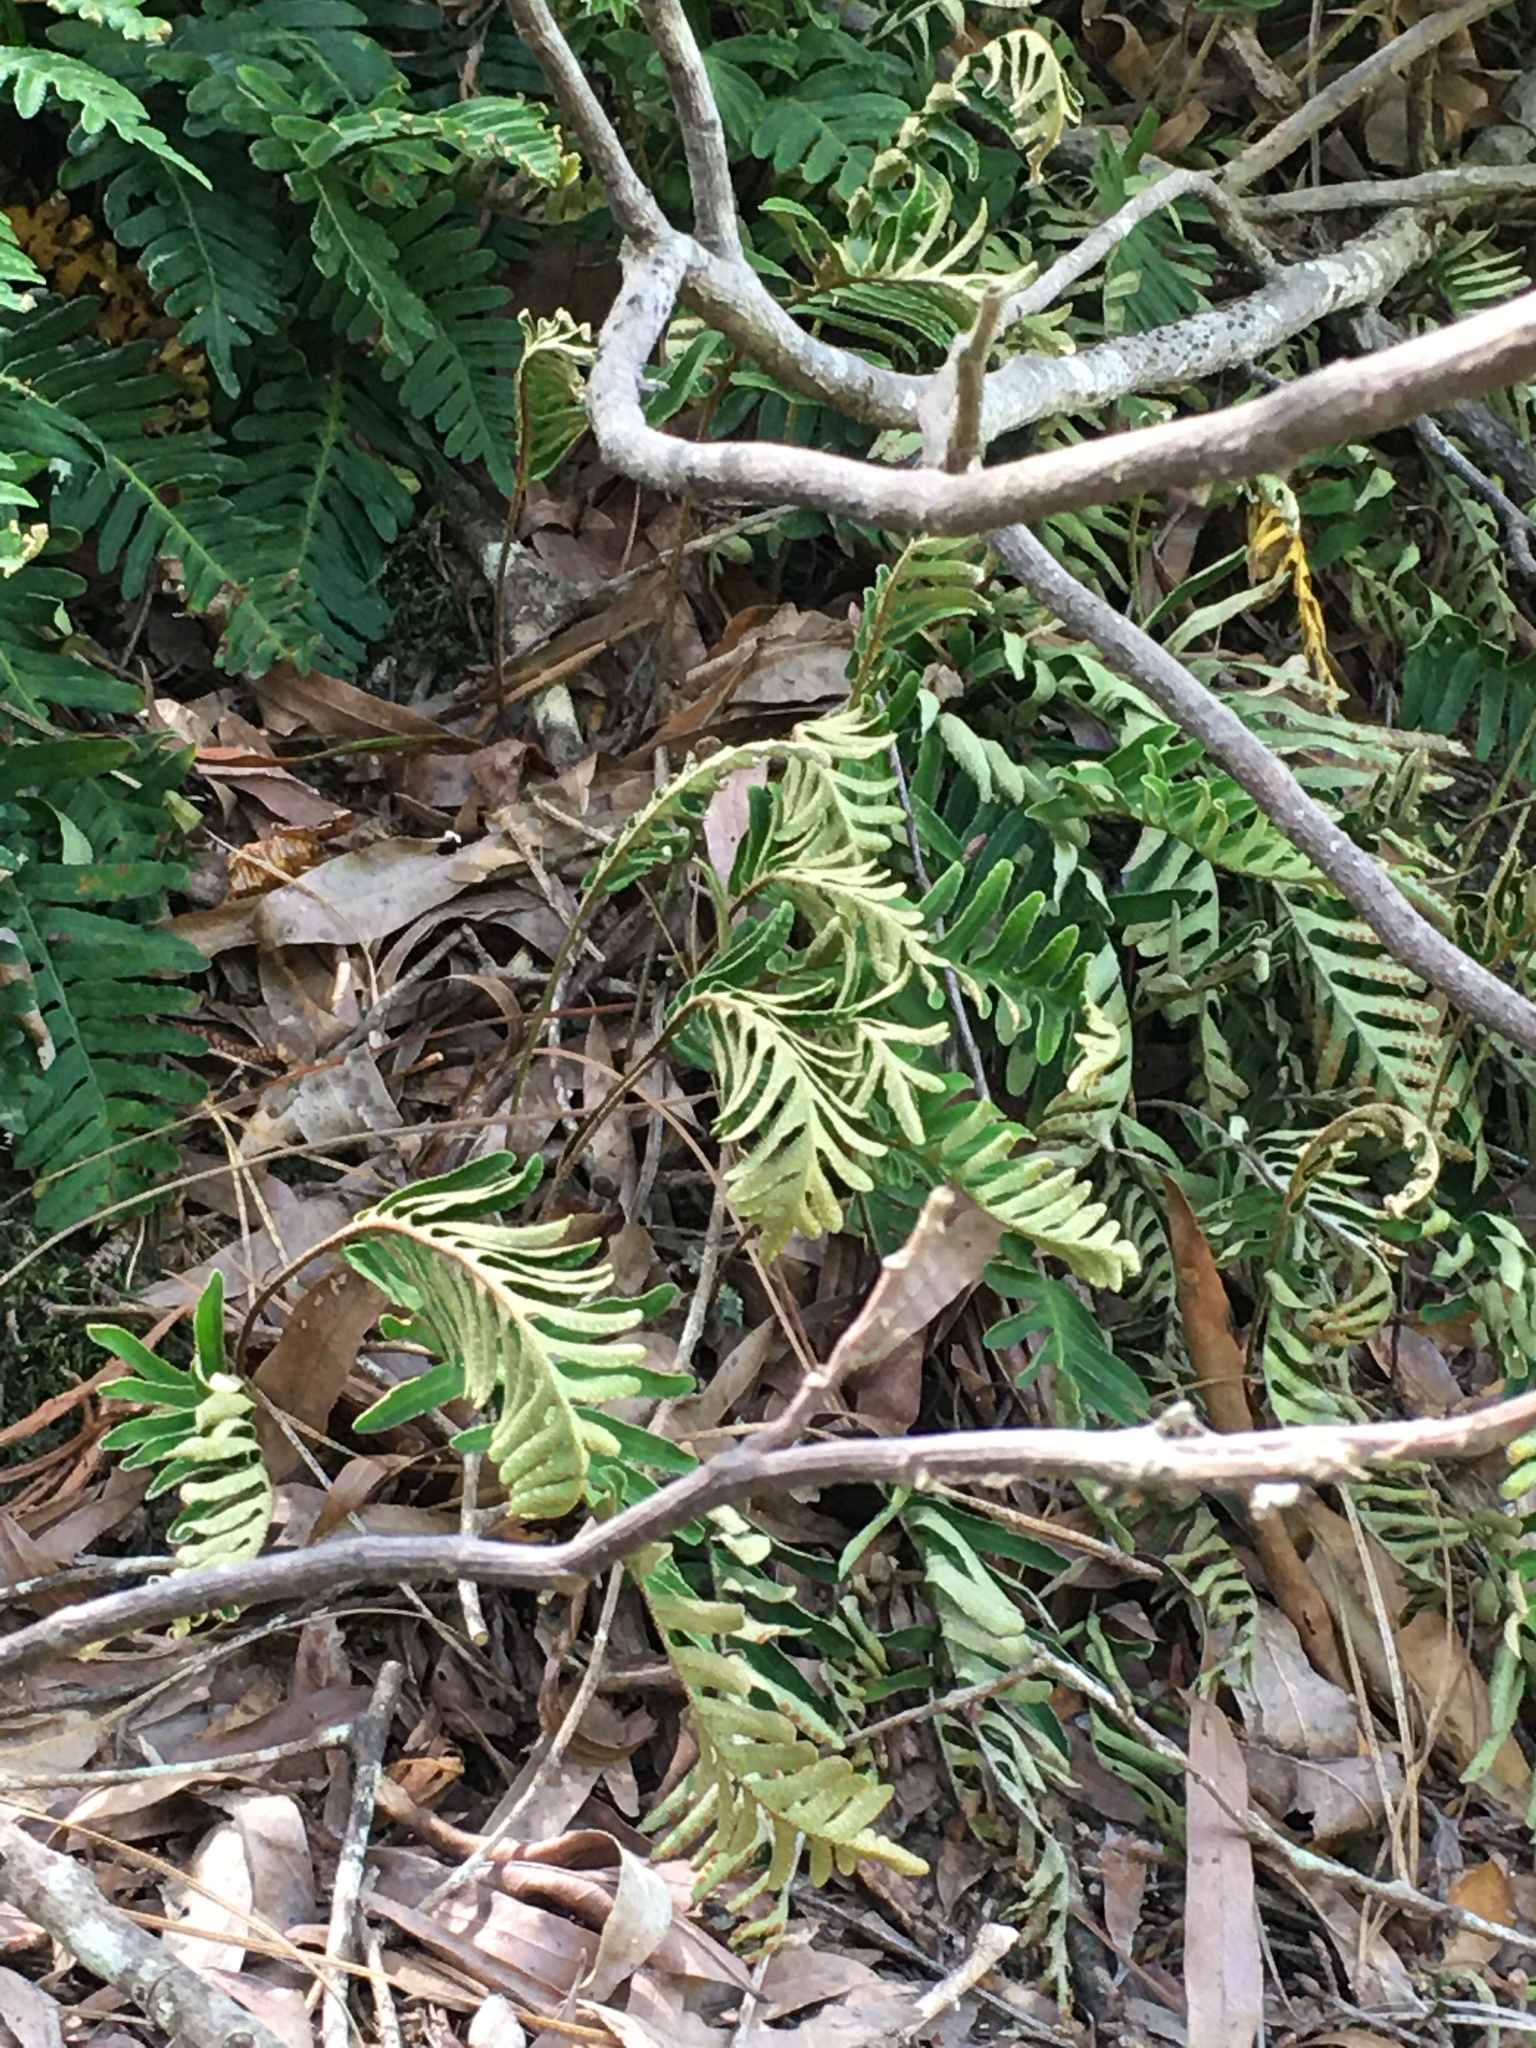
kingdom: Plantae
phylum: Tracheophyta
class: Polypodiopsida
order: Polypodiales
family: Polypodiaceae
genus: Pleopeltis
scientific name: Pleopeltis michauxiana
